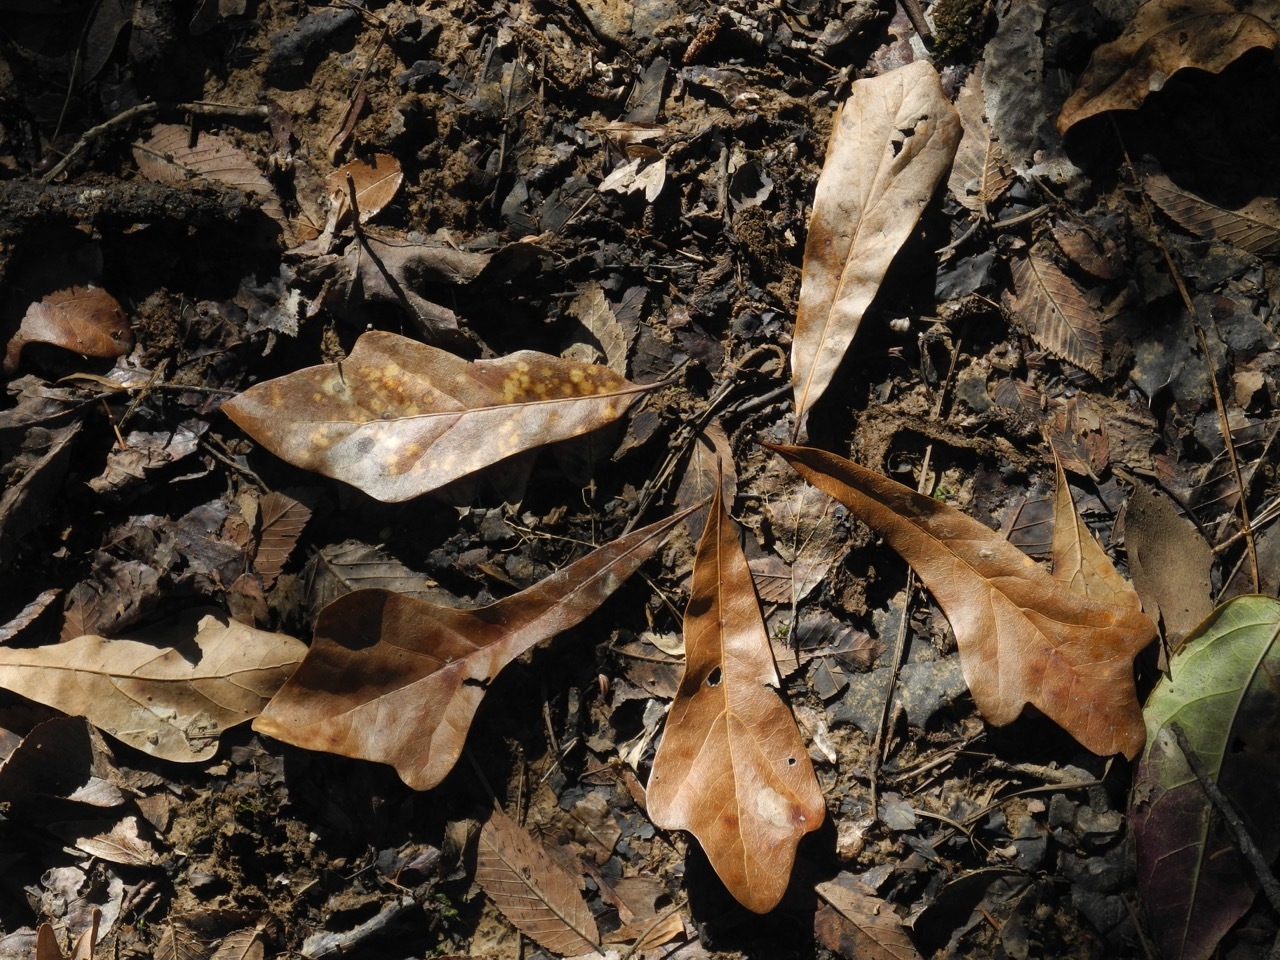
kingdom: Plantae
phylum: Tracheophyta
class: Magnoliopsida
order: Fagales
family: Fagaceae
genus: Quercus
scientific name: Quercus nigra
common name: Water oak
